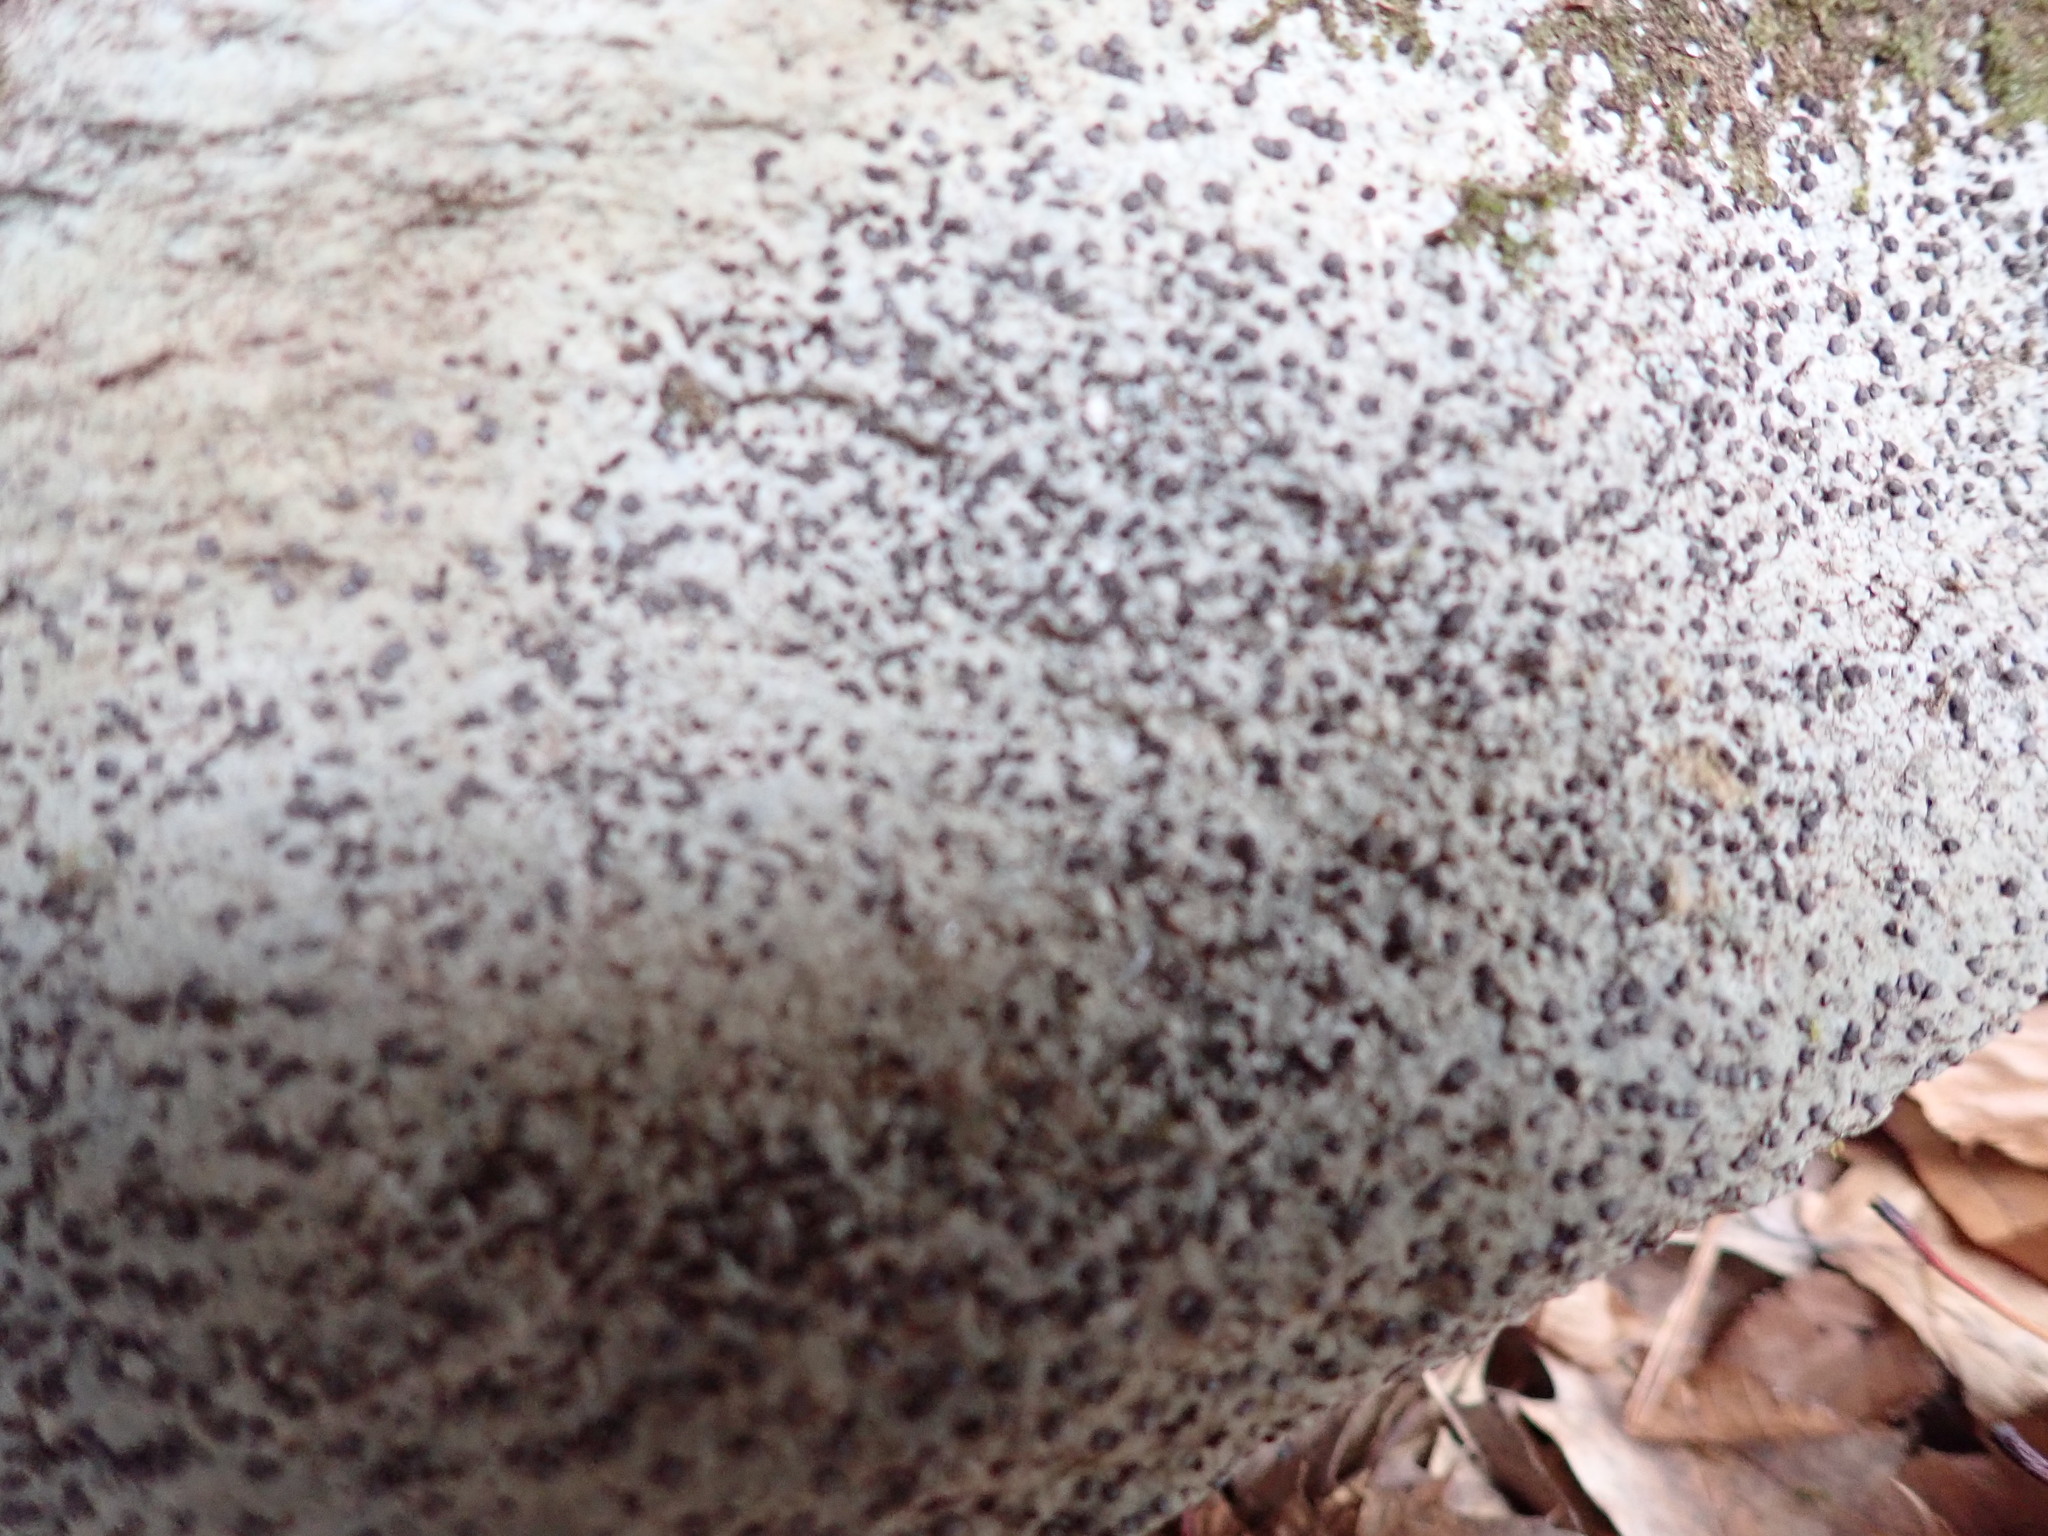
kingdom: Fungi
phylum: Ascomycota
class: Lecanoromycetes
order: Lecideales
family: Lecideaceae
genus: Porpidia
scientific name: Porpidia albocaerulescens
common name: Smokey-eyed boulder lichen
